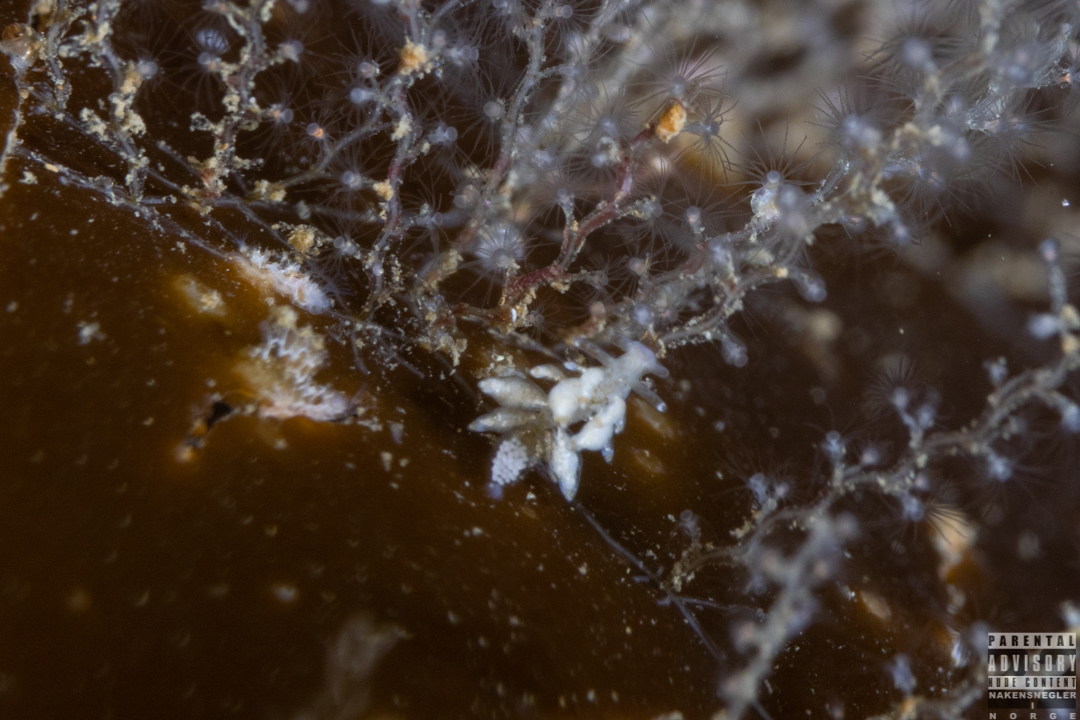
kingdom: Animalia
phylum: Mollusca
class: Gastropoda
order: Nudibranchia
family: Eubranchidae
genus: Eubranchus
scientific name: Eubranchus exiguus
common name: Balloon aeolis
